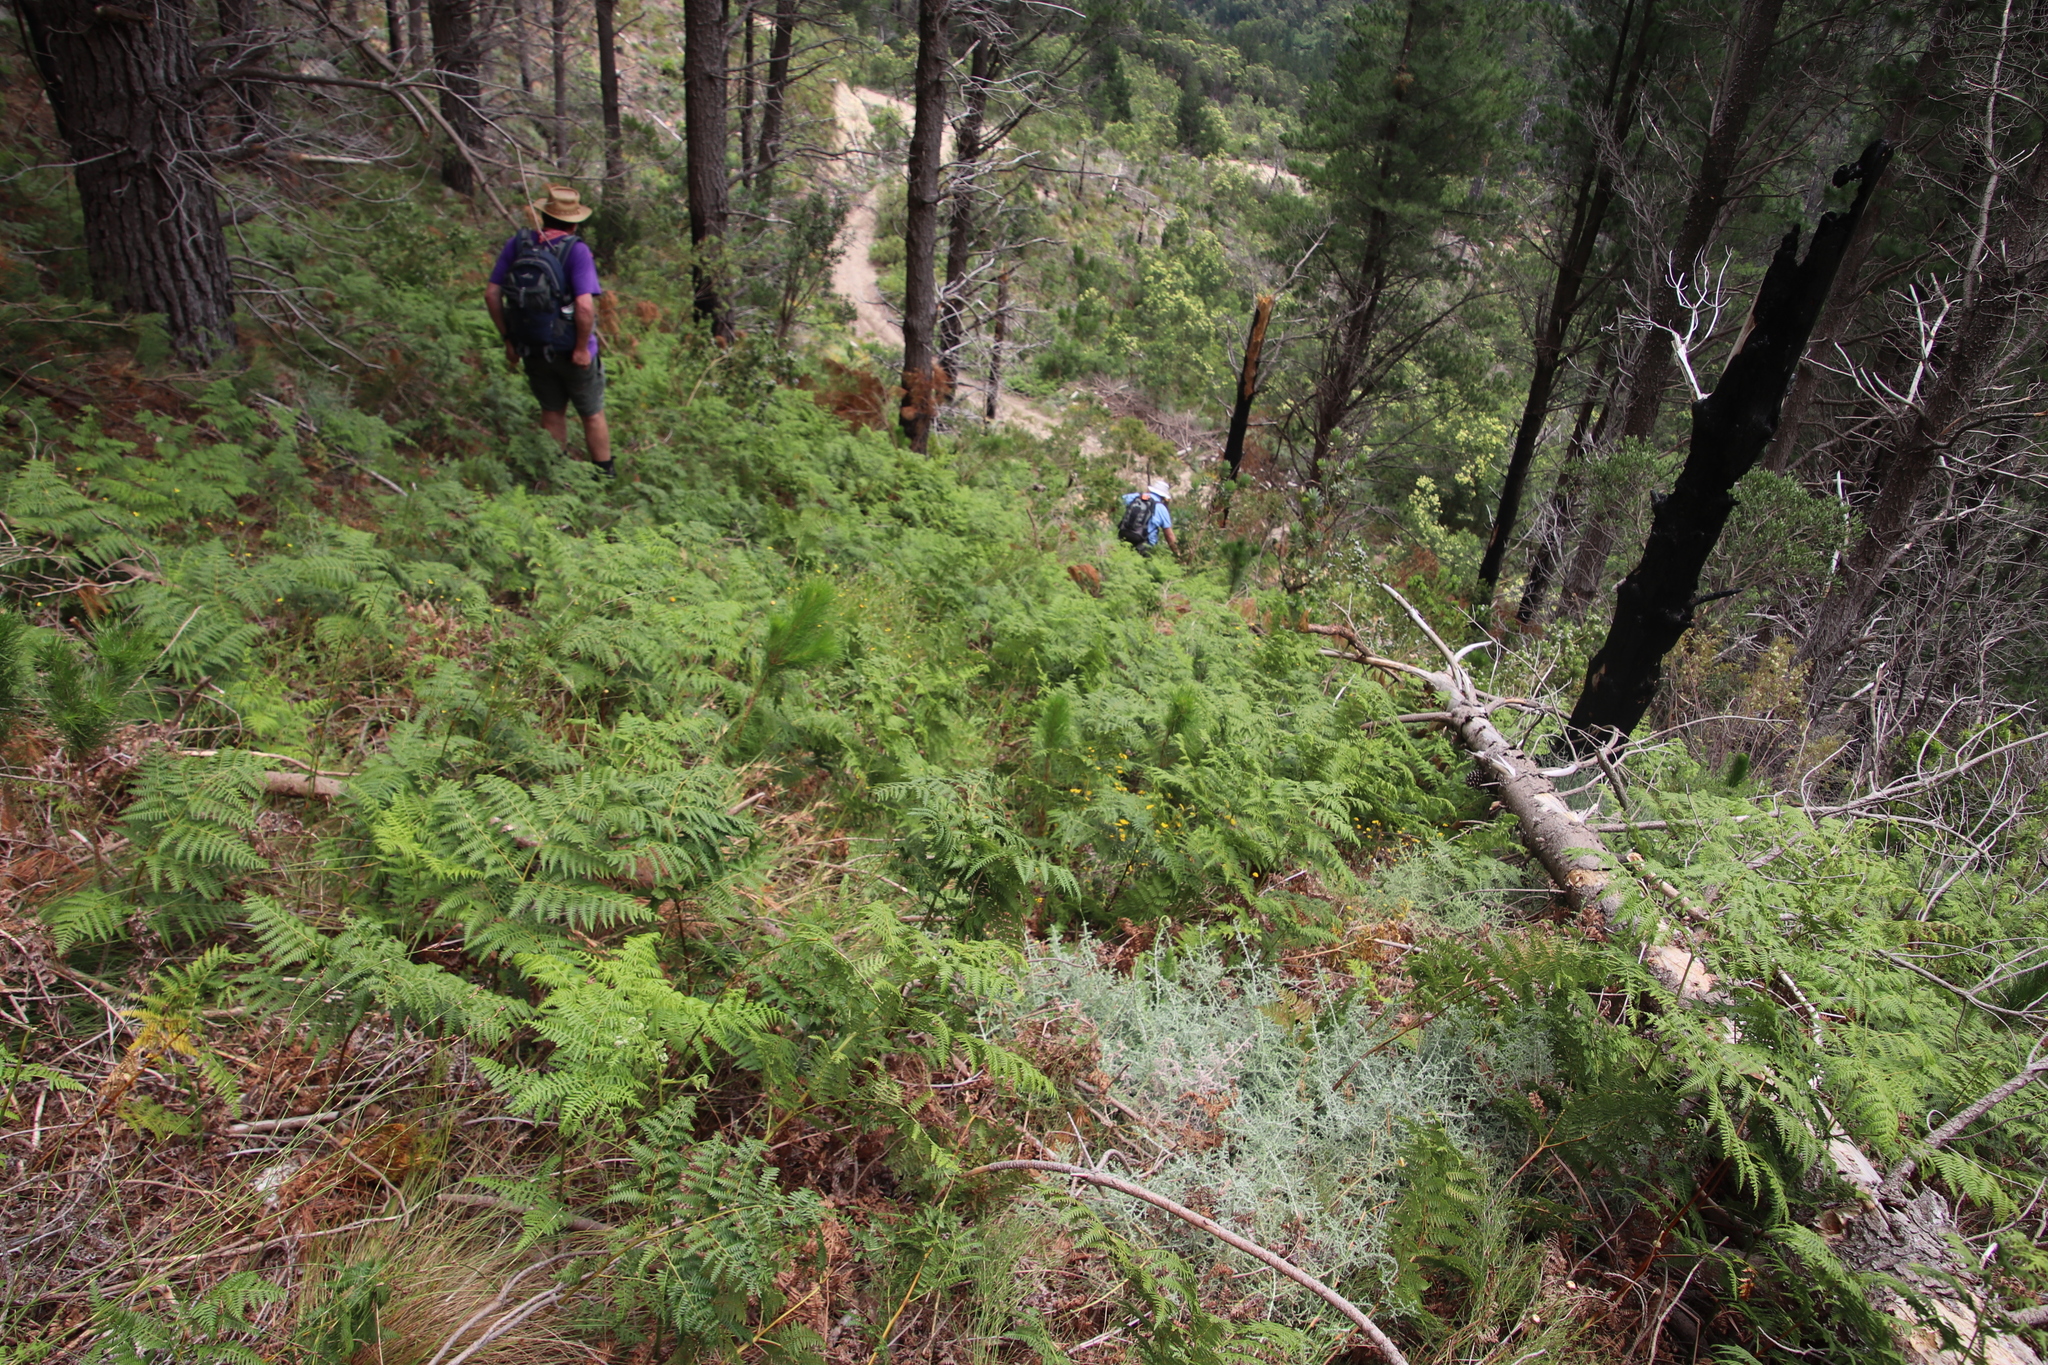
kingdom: Plantae
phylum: Tracheophyta
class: Polypodiopsida
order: Polypodiales
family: Dennstaedtiaceae
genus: Pteridium
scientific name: Pteridium aquilinum
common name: Bracken
